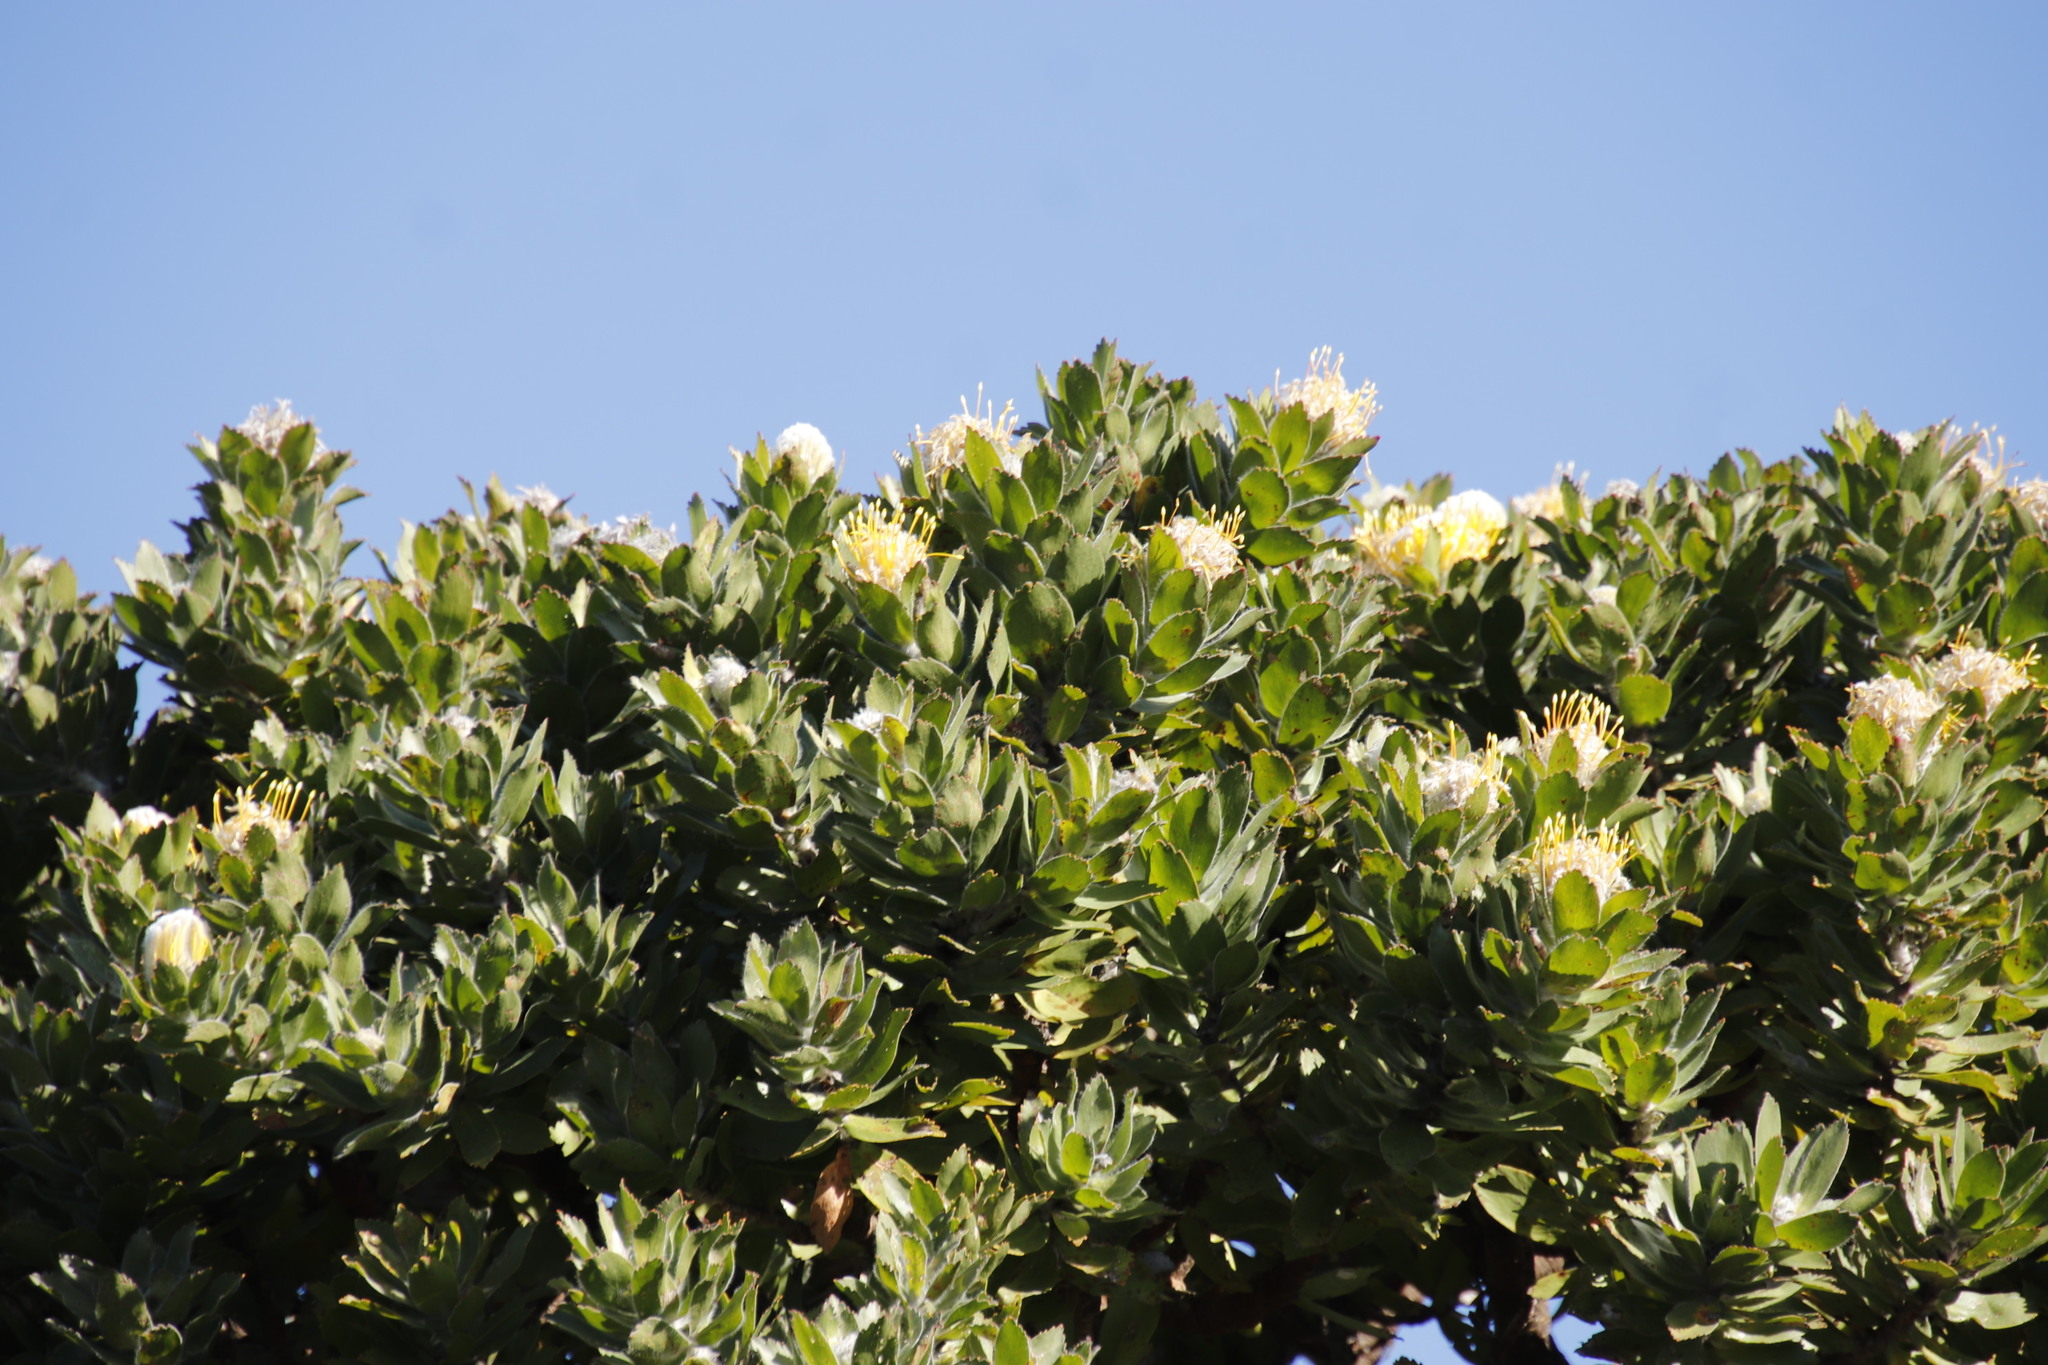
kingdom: Plantae
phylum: Tracheophyta
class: Magnoliopsida
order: Proteales
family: Proteaceae
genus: Leucospermum
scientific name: Leucospermum conocarpodendron
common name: Tree pincushion
